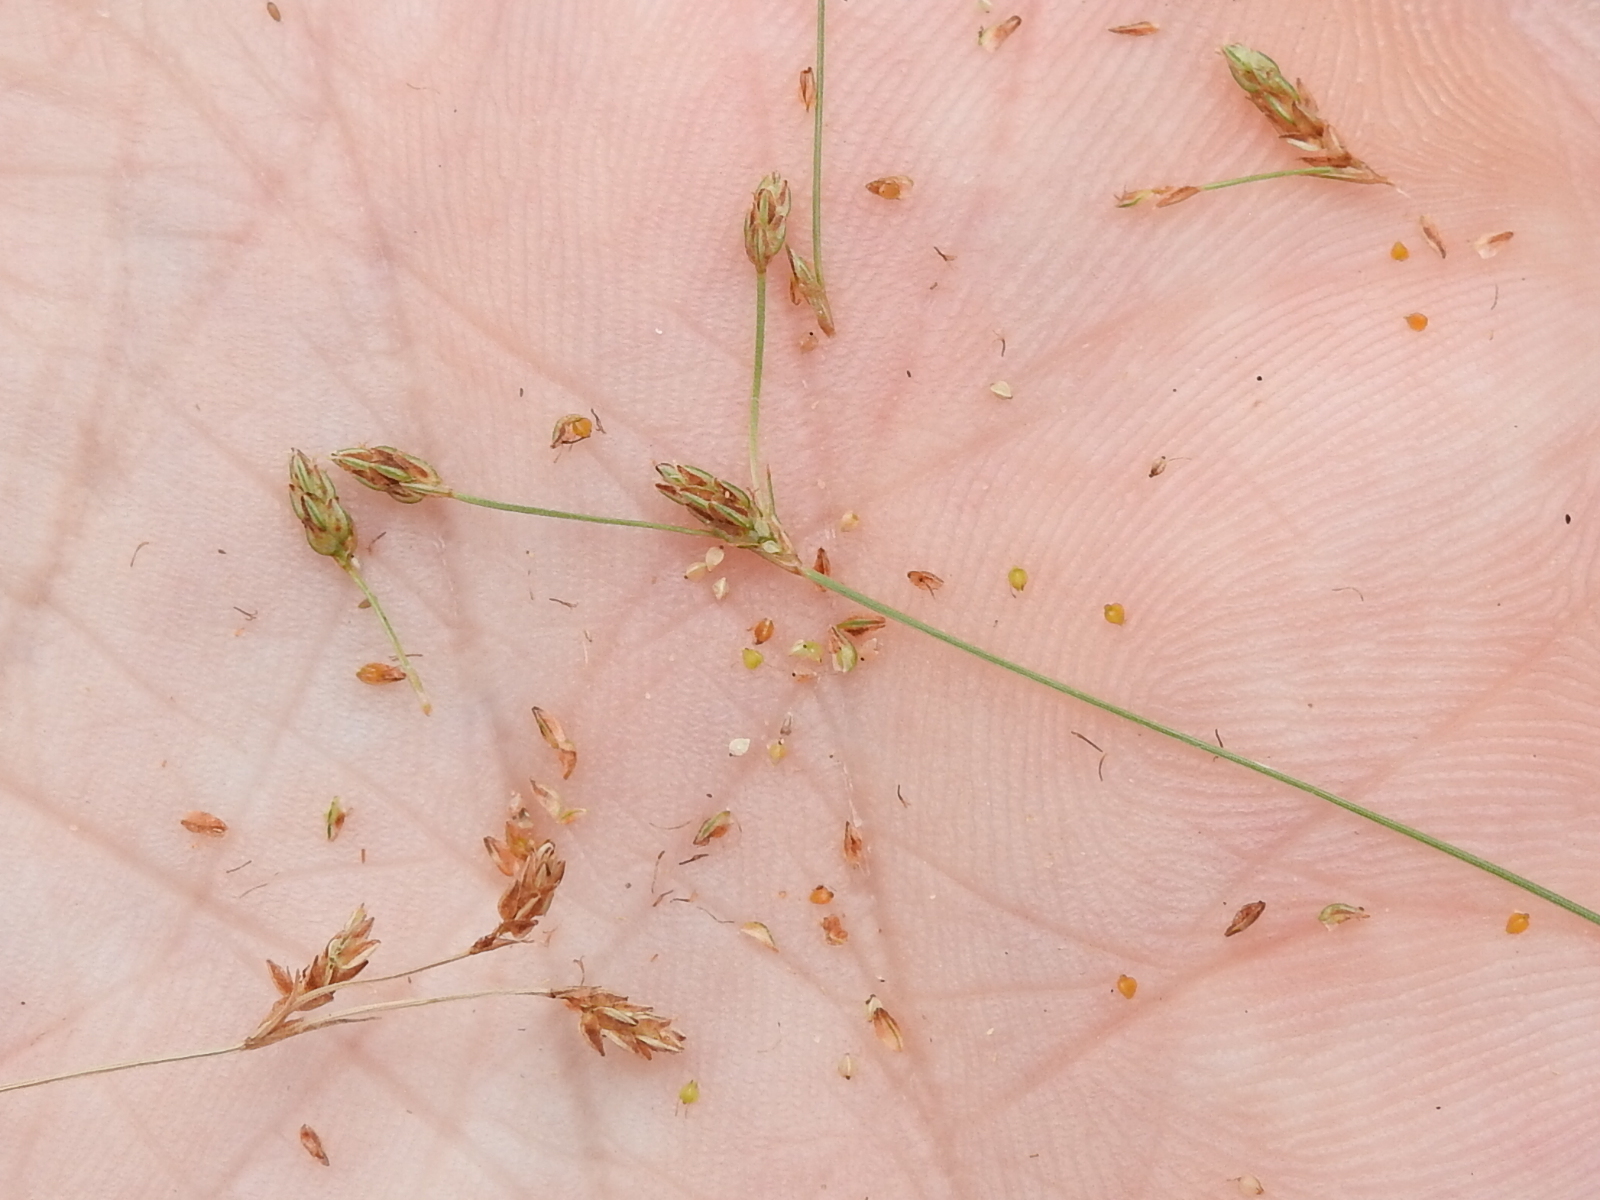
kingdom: Plantae
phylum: Tracheophyta
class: Liliopsida
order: Poales
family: Cyperaceae
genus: Fimbristylis
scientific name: Fimbristylis autumnalis
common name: Slender fimbristylis
